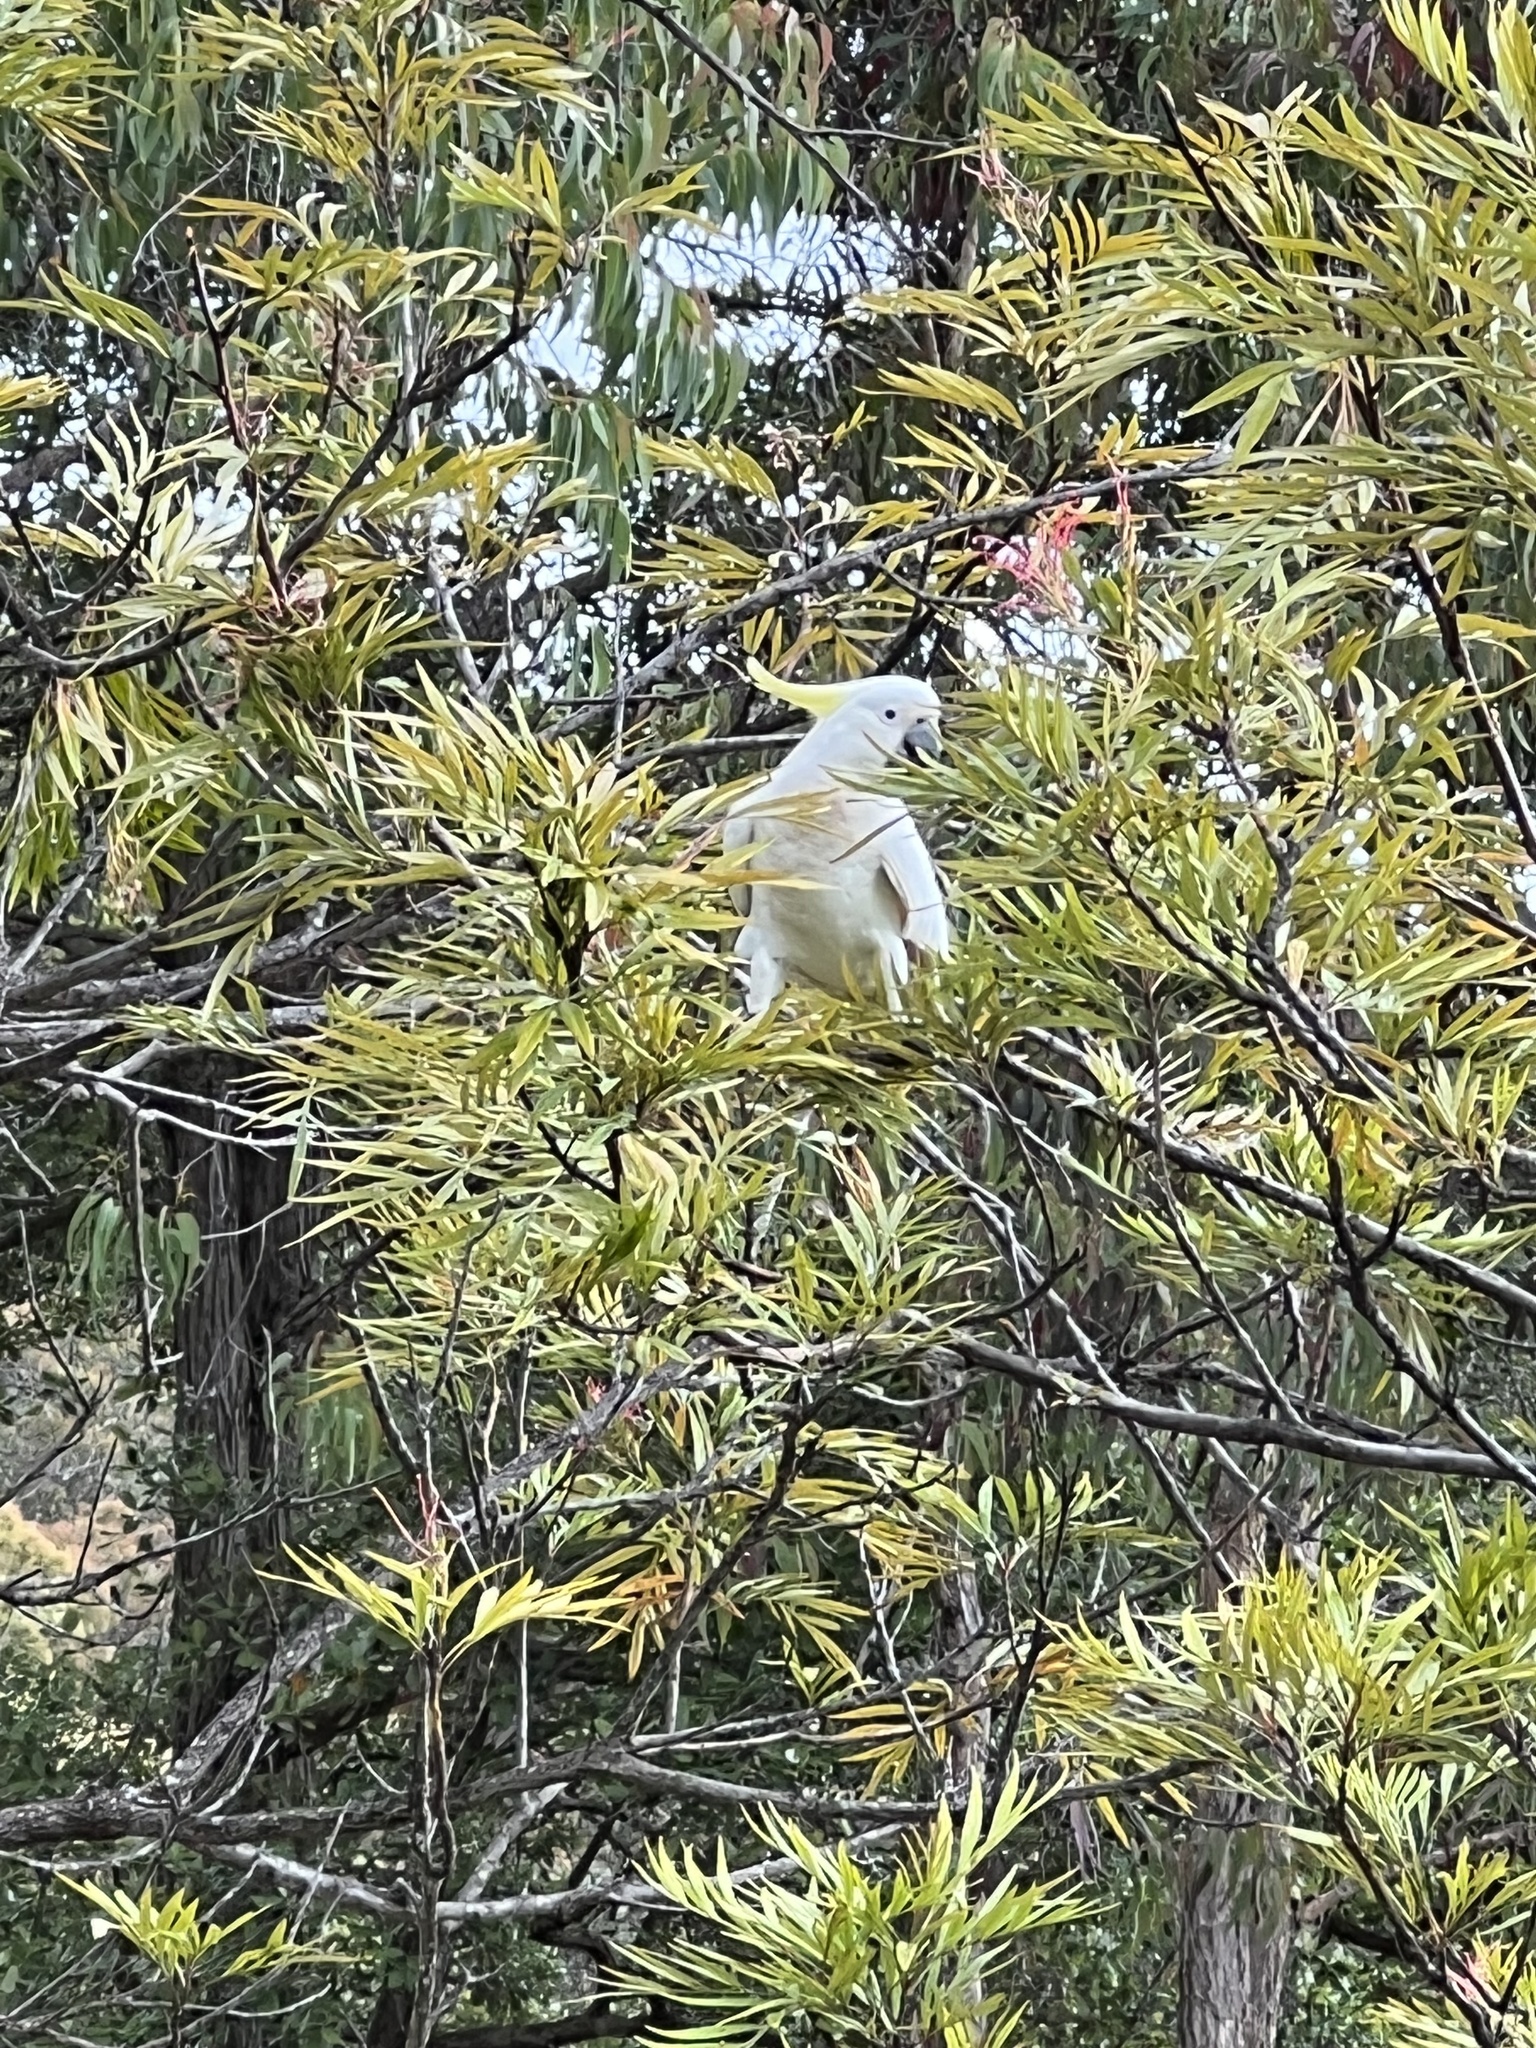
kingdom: Animalia
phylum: Chordata
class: Aves
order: Psittaciformes
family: Psittacidae
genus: Cacatua
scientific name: Cacatua galerita
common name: Sulphur-crested cockatoo
